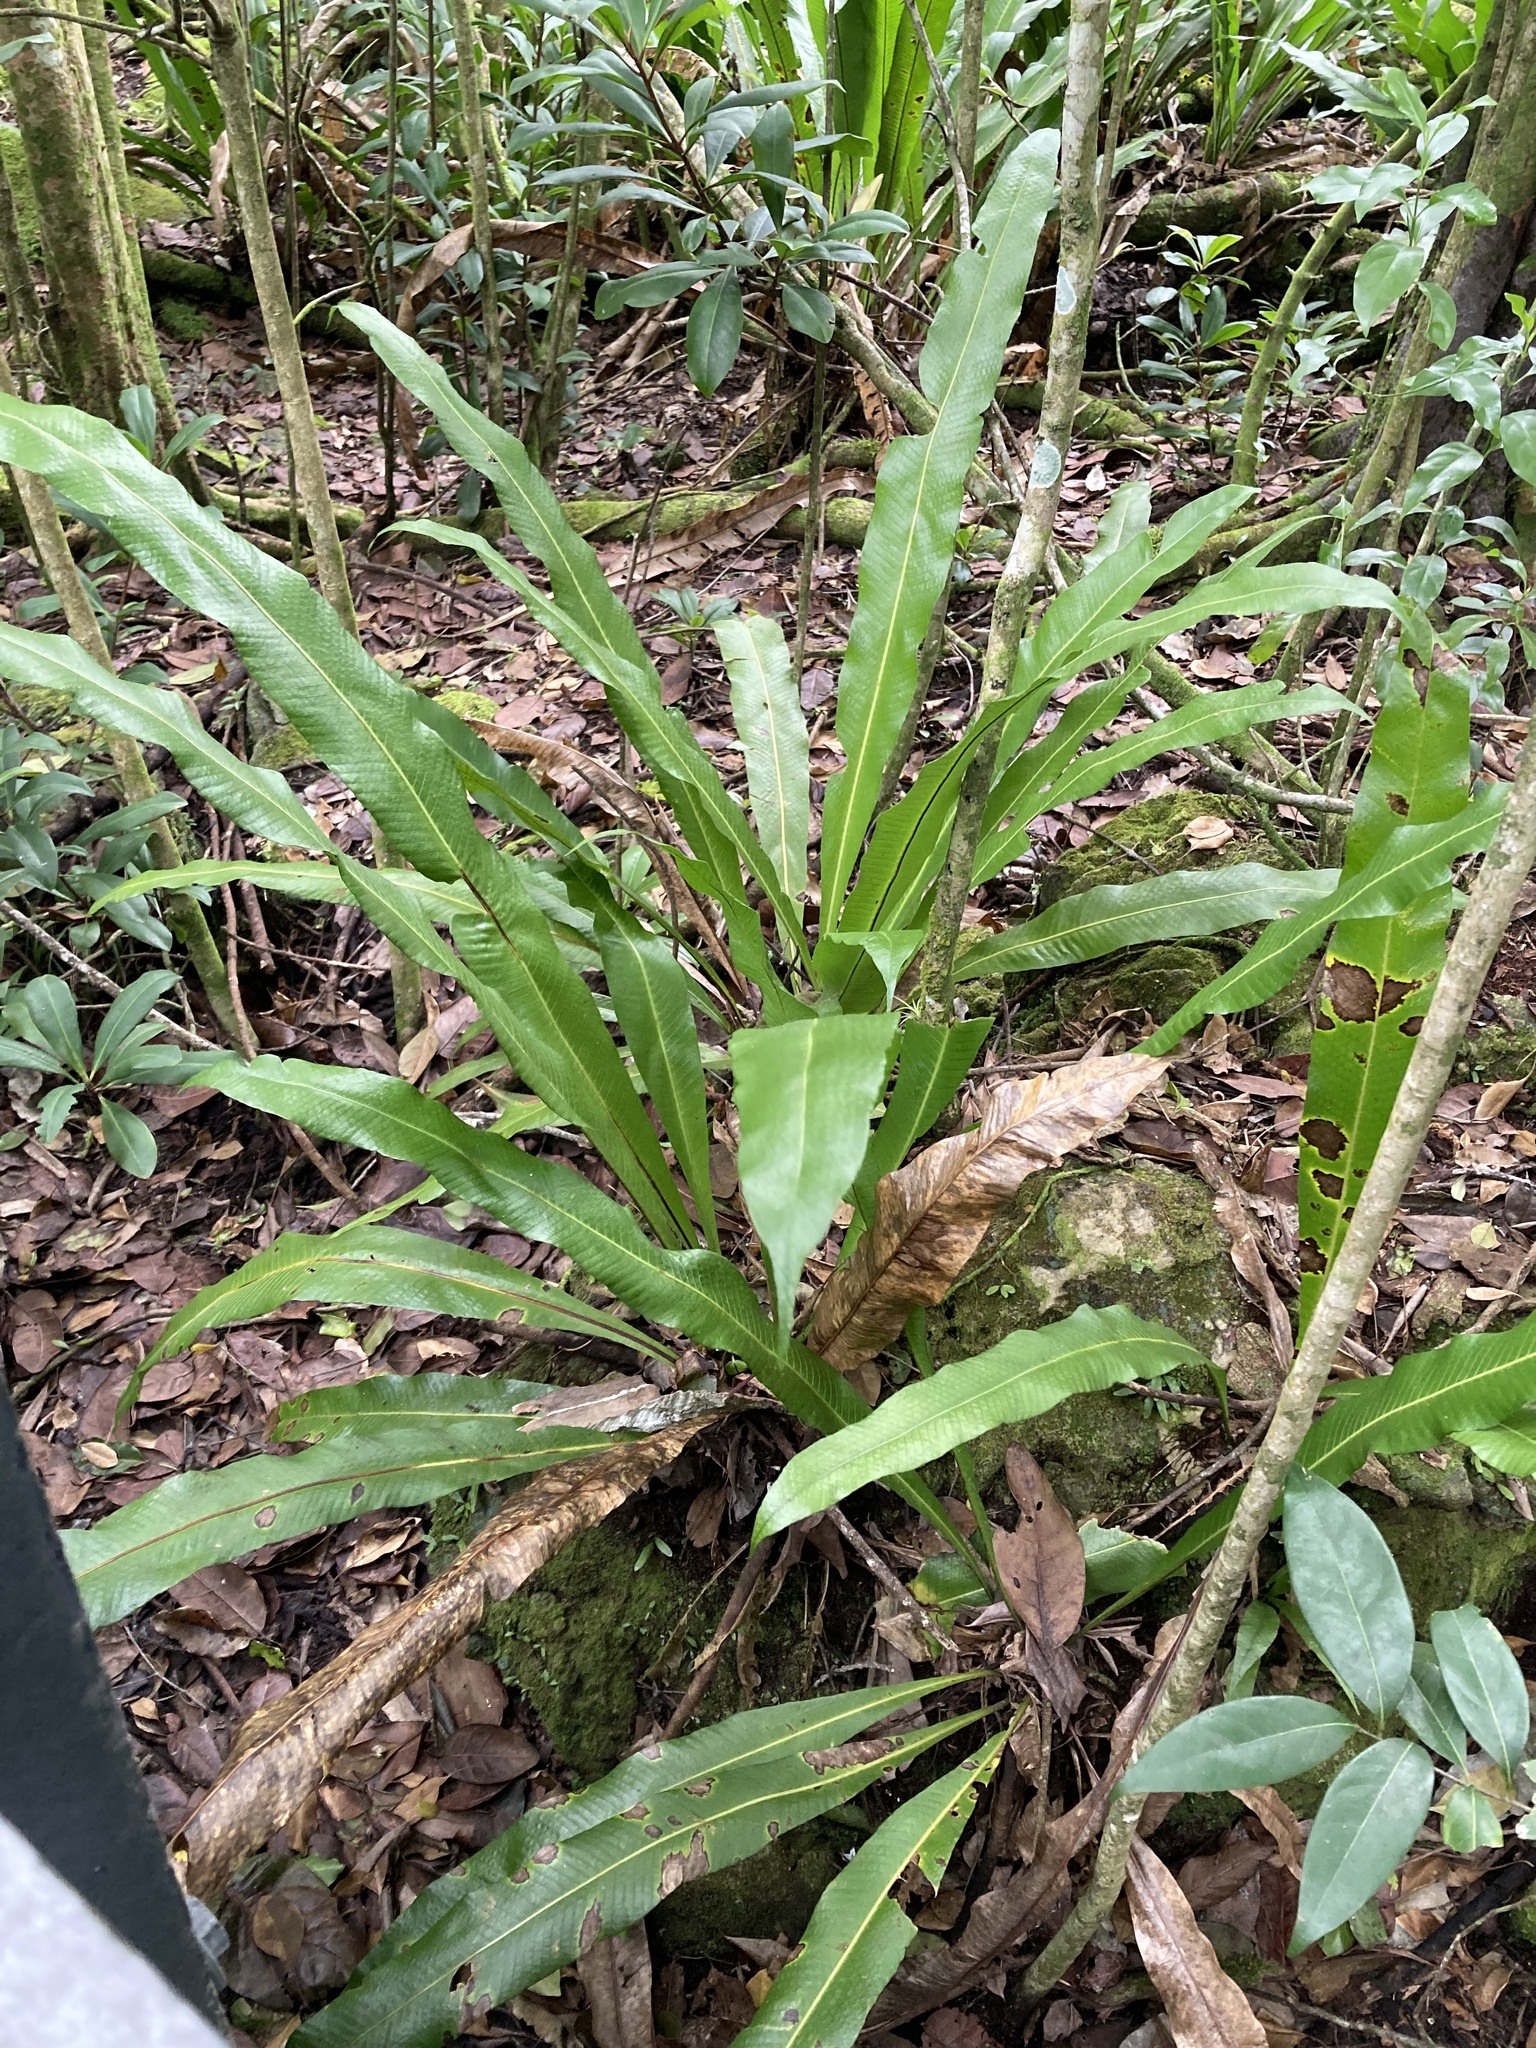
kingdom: Plantae
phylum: Tracheophyta
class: Polypodiopsida
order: Polypodiales
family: Polypodiaceae
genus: Campyloneurum
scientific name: Campyloneurum phyllitidis
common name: Cow-tongue fern
